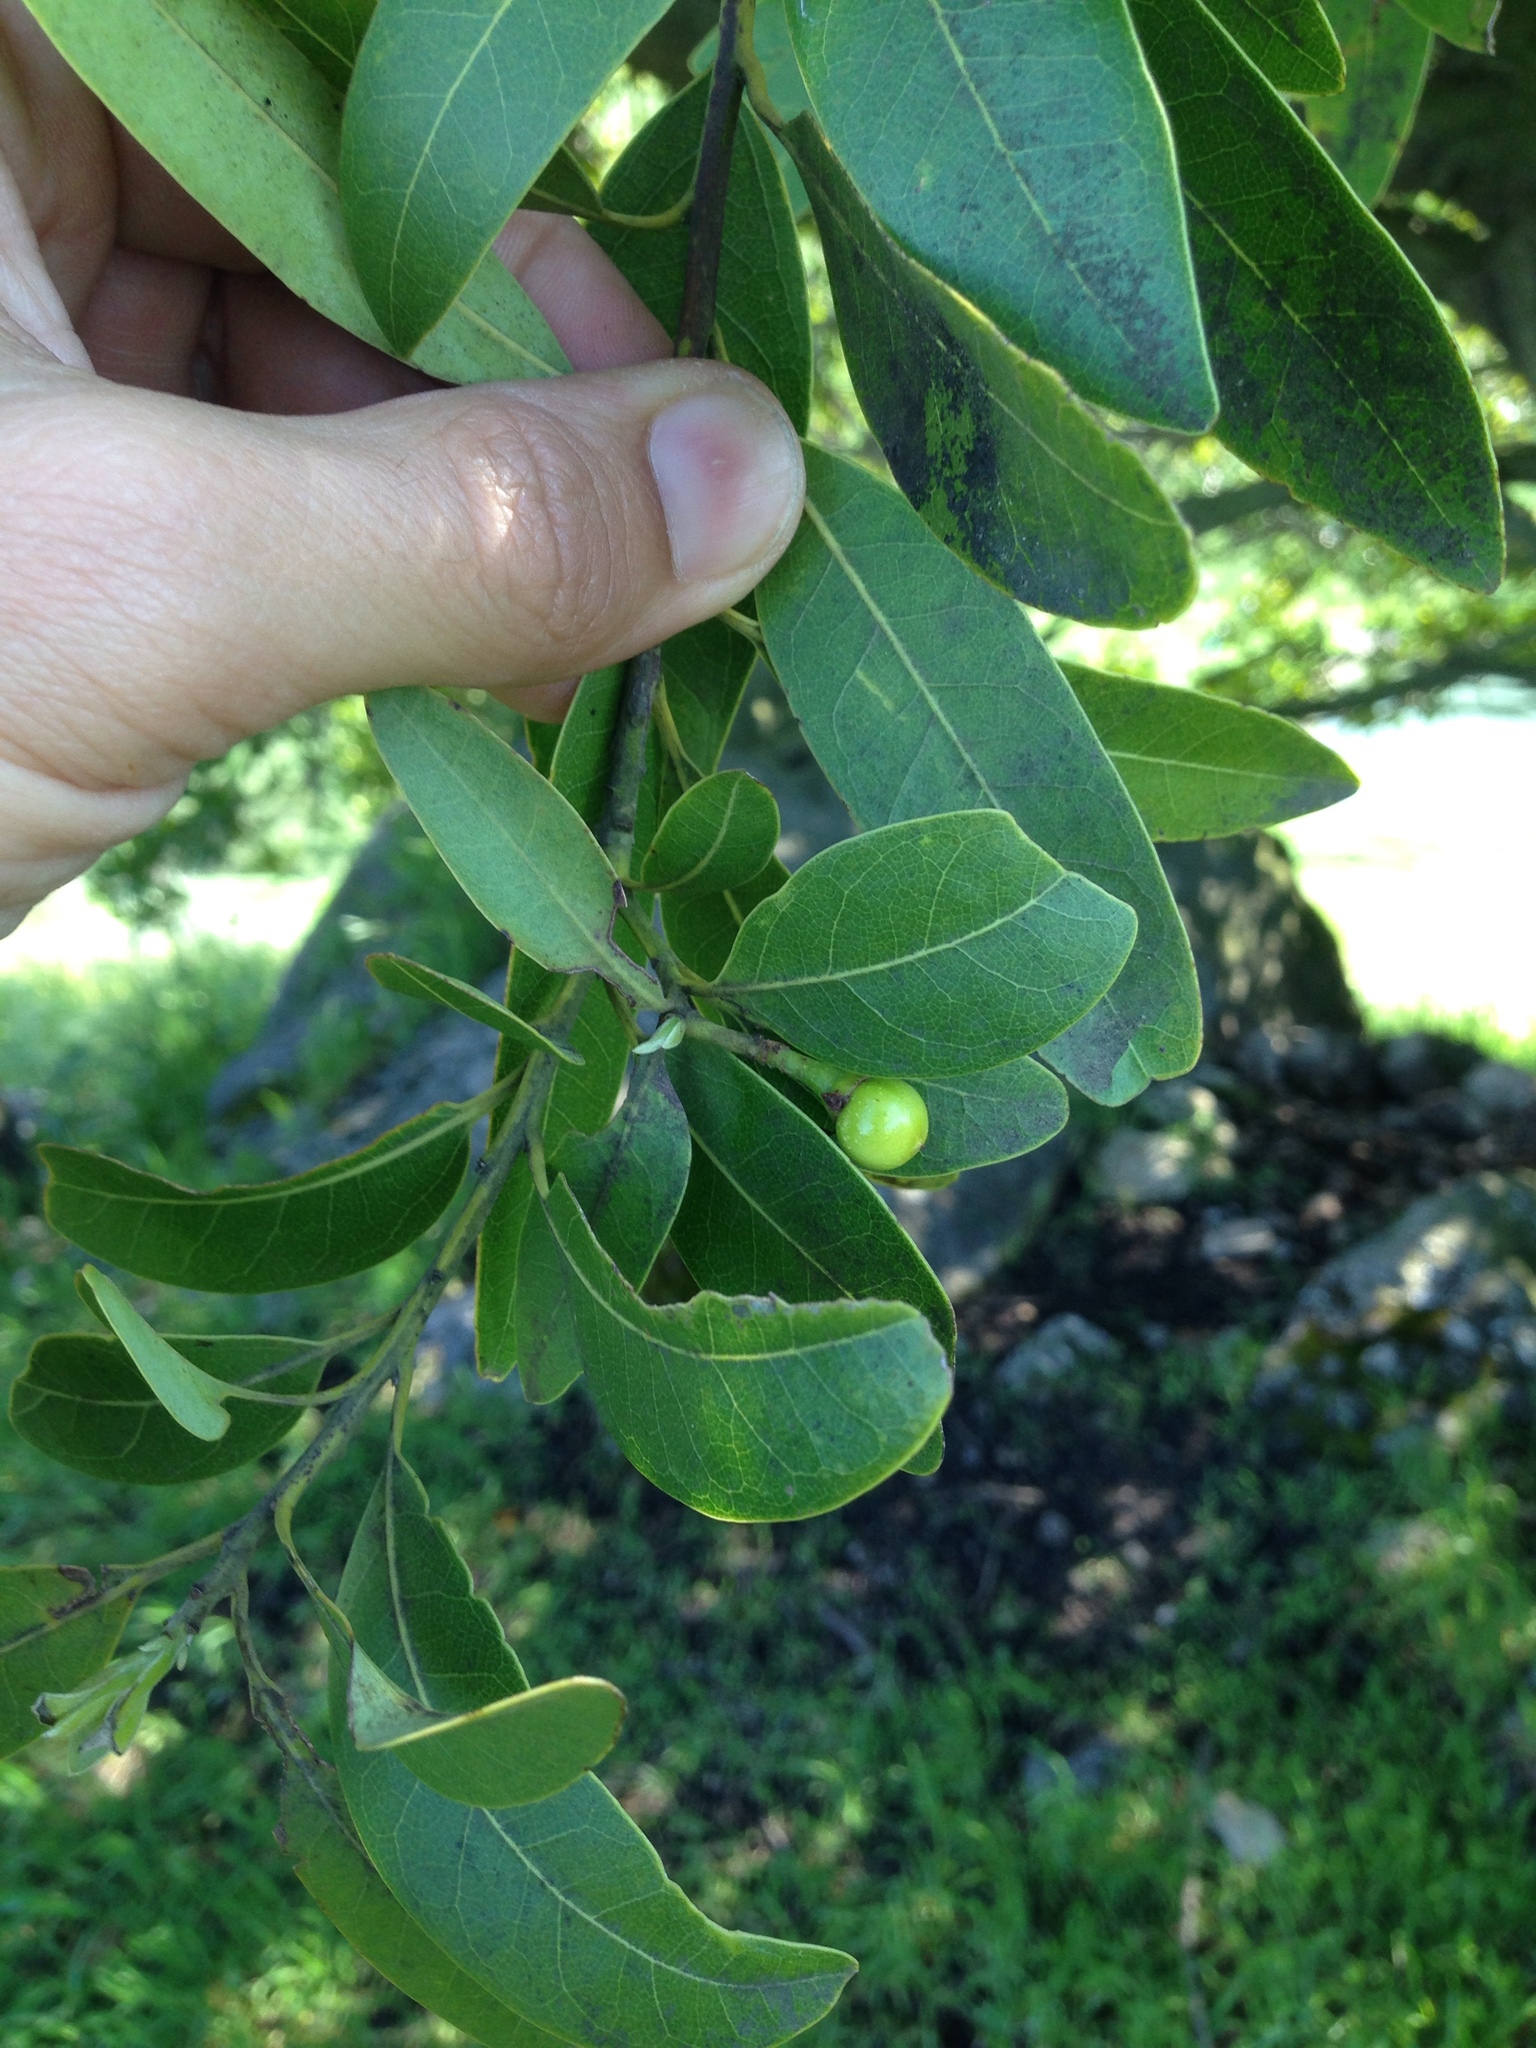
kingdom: Plantae
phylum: Tracheophyta
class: Magnoliopsida
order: Laurales
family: Lauraceae
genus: Umbellularia
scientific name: Umbellularia californica
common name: California bay
